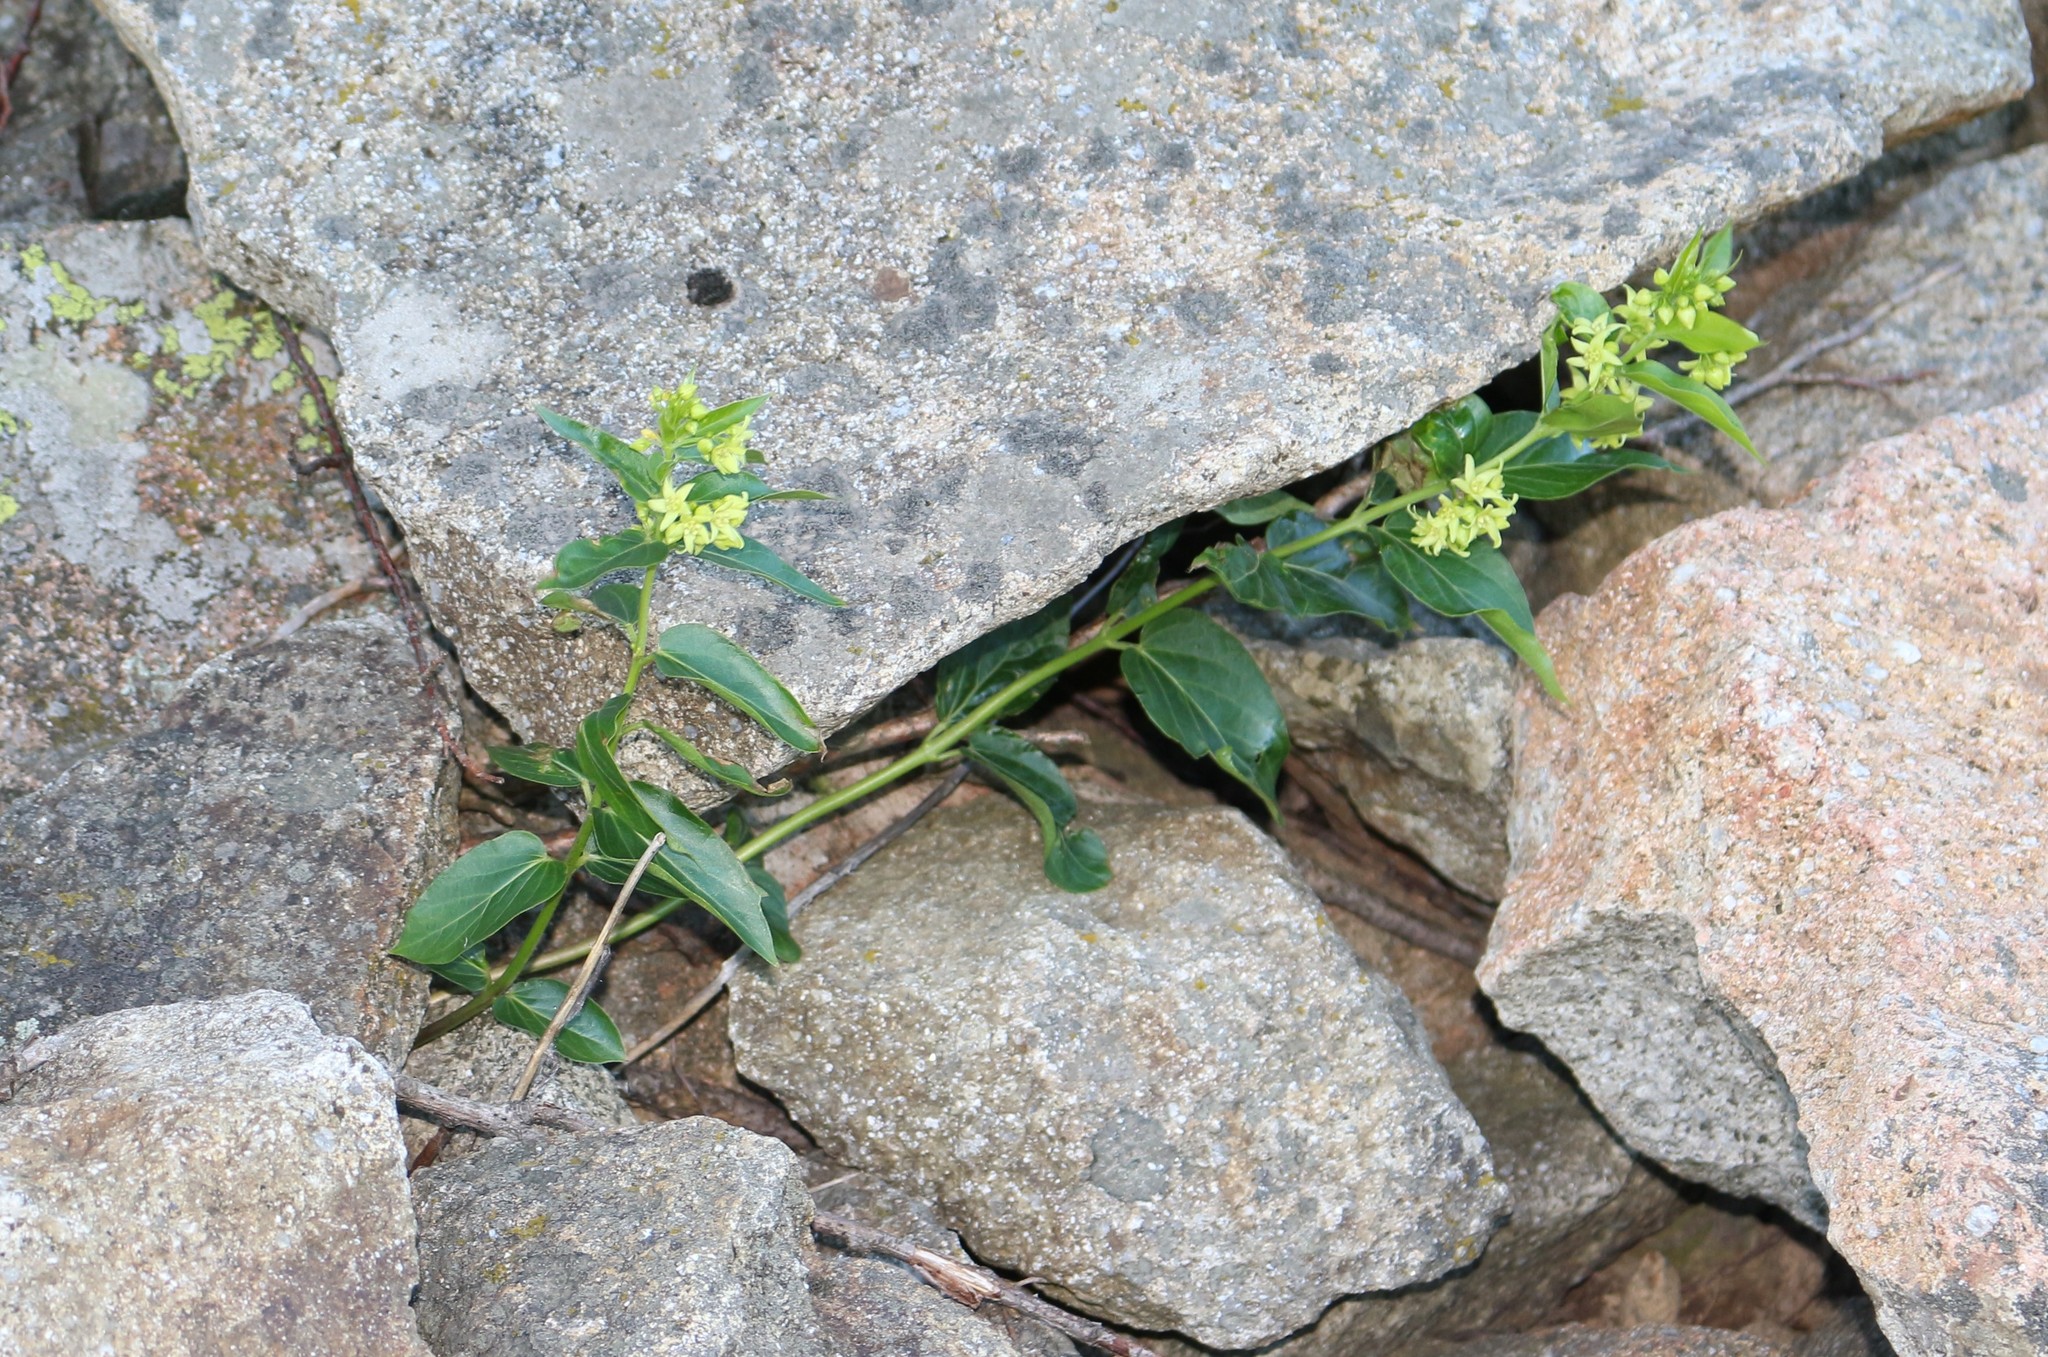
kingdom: Plantae
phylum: Tracheophyta
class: Magnoliopsida
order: Gentianales
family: Apocynaceae
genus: Vincetoxicum
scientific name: Vincetoxicum hirundinaria
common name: White swallowwort
